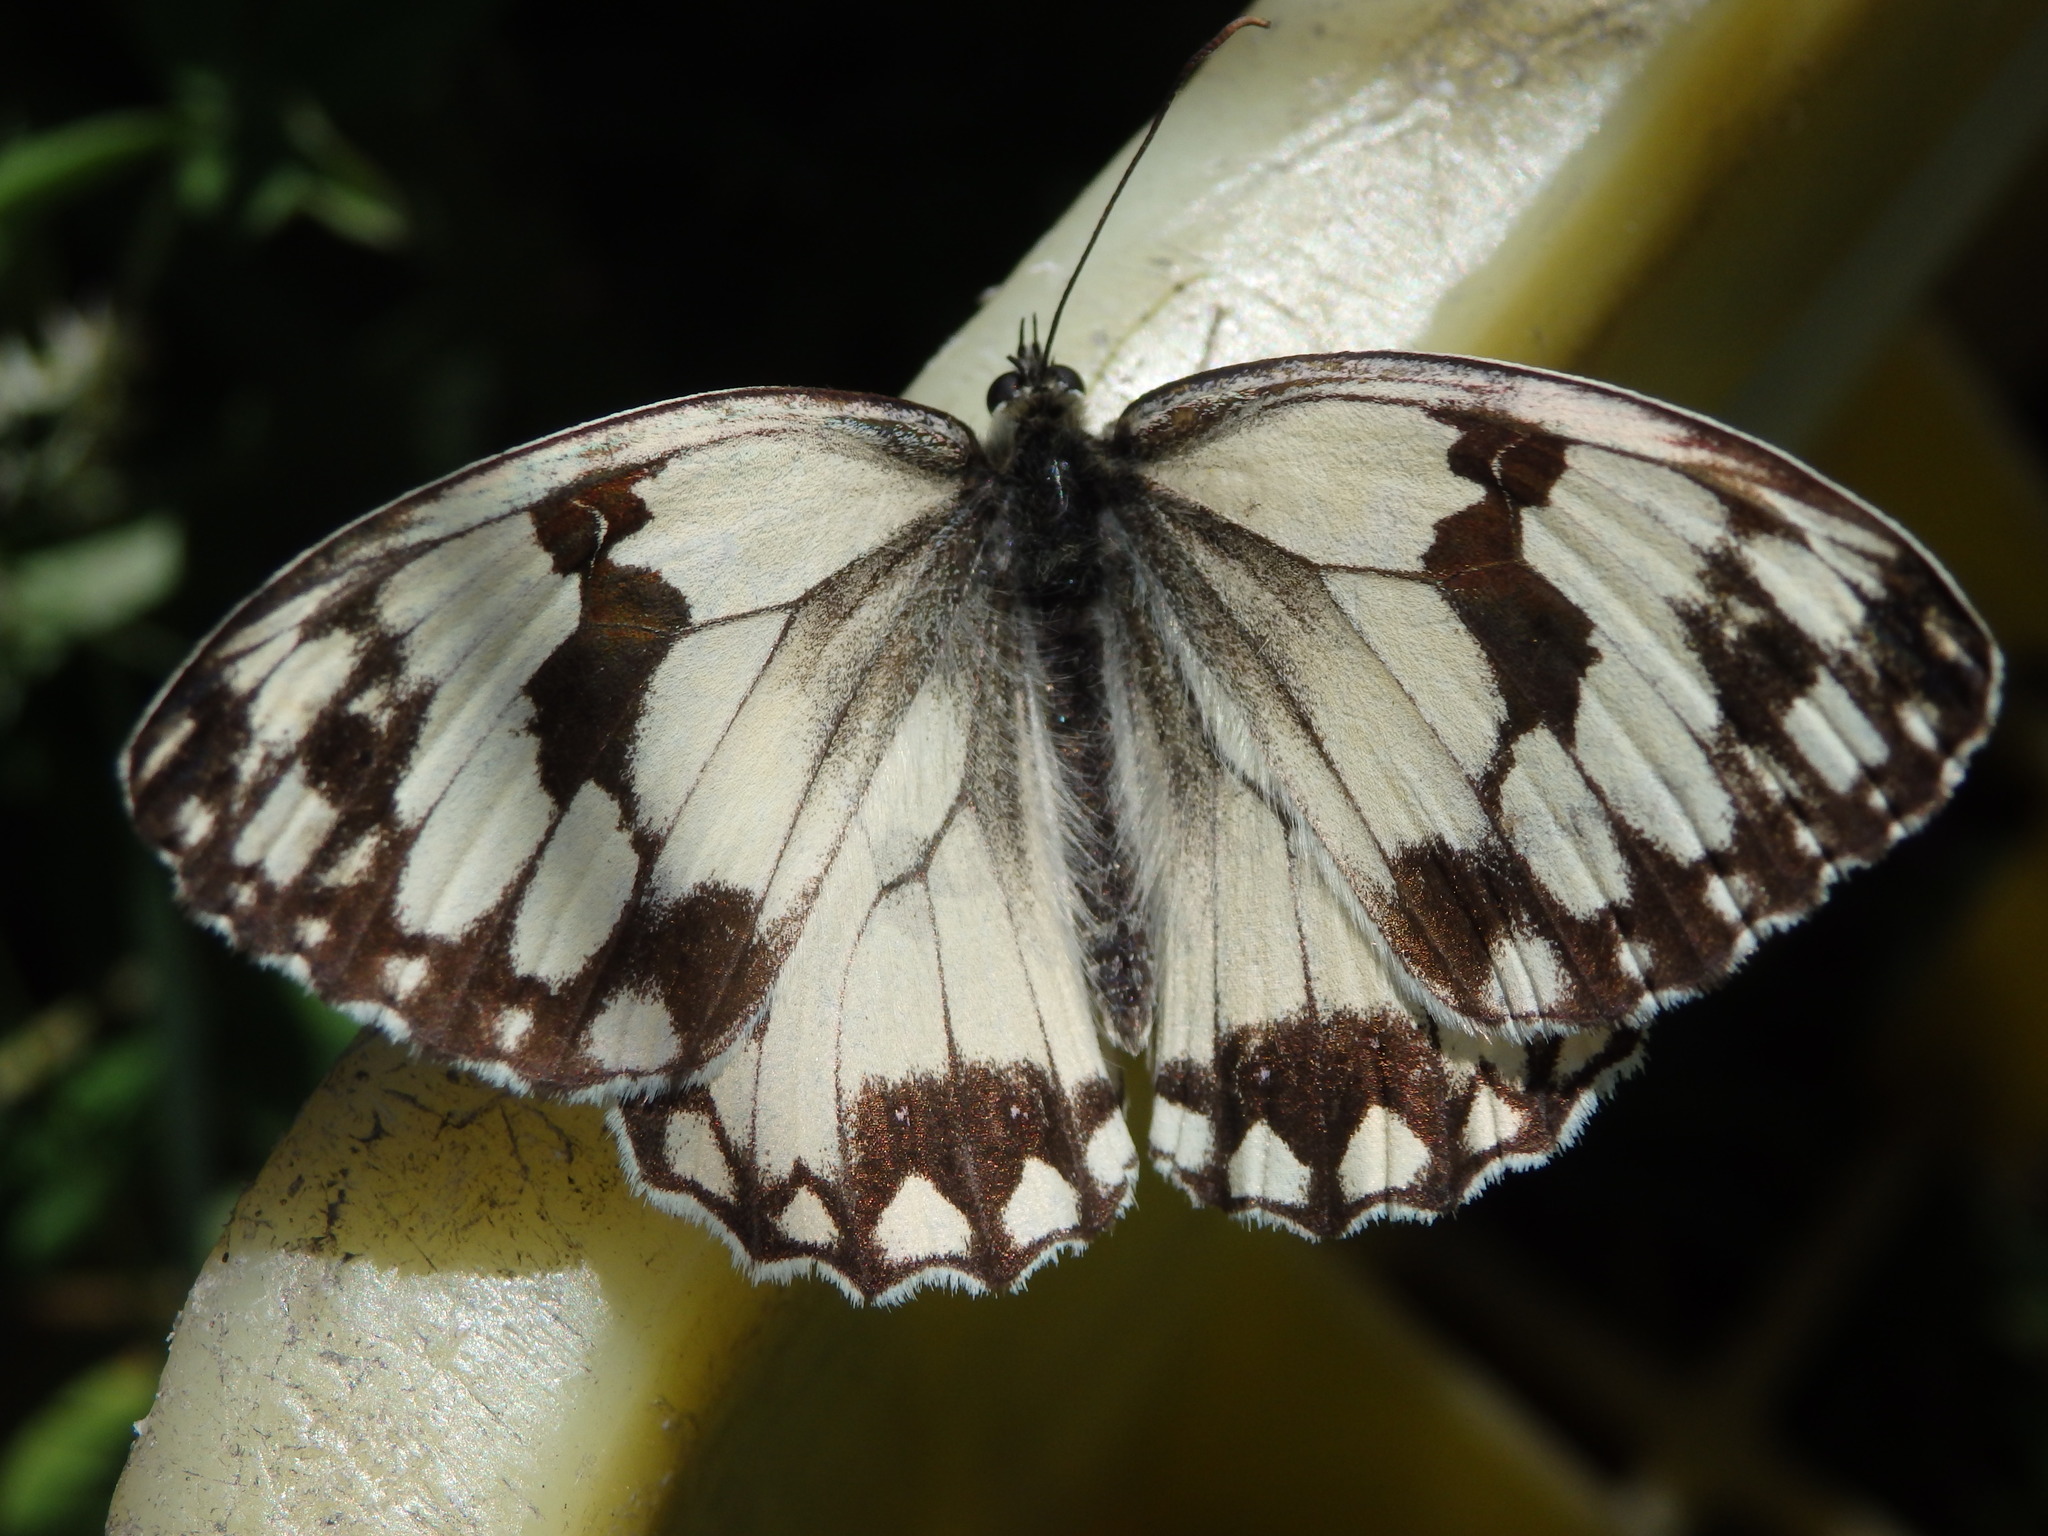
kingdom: Animalia
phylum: Arthropoda
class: Insecta
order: Lepidoptera
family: Nymphalidae
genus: Melanargia
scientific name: Melanargia lachesis
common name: Iberian marbled white
